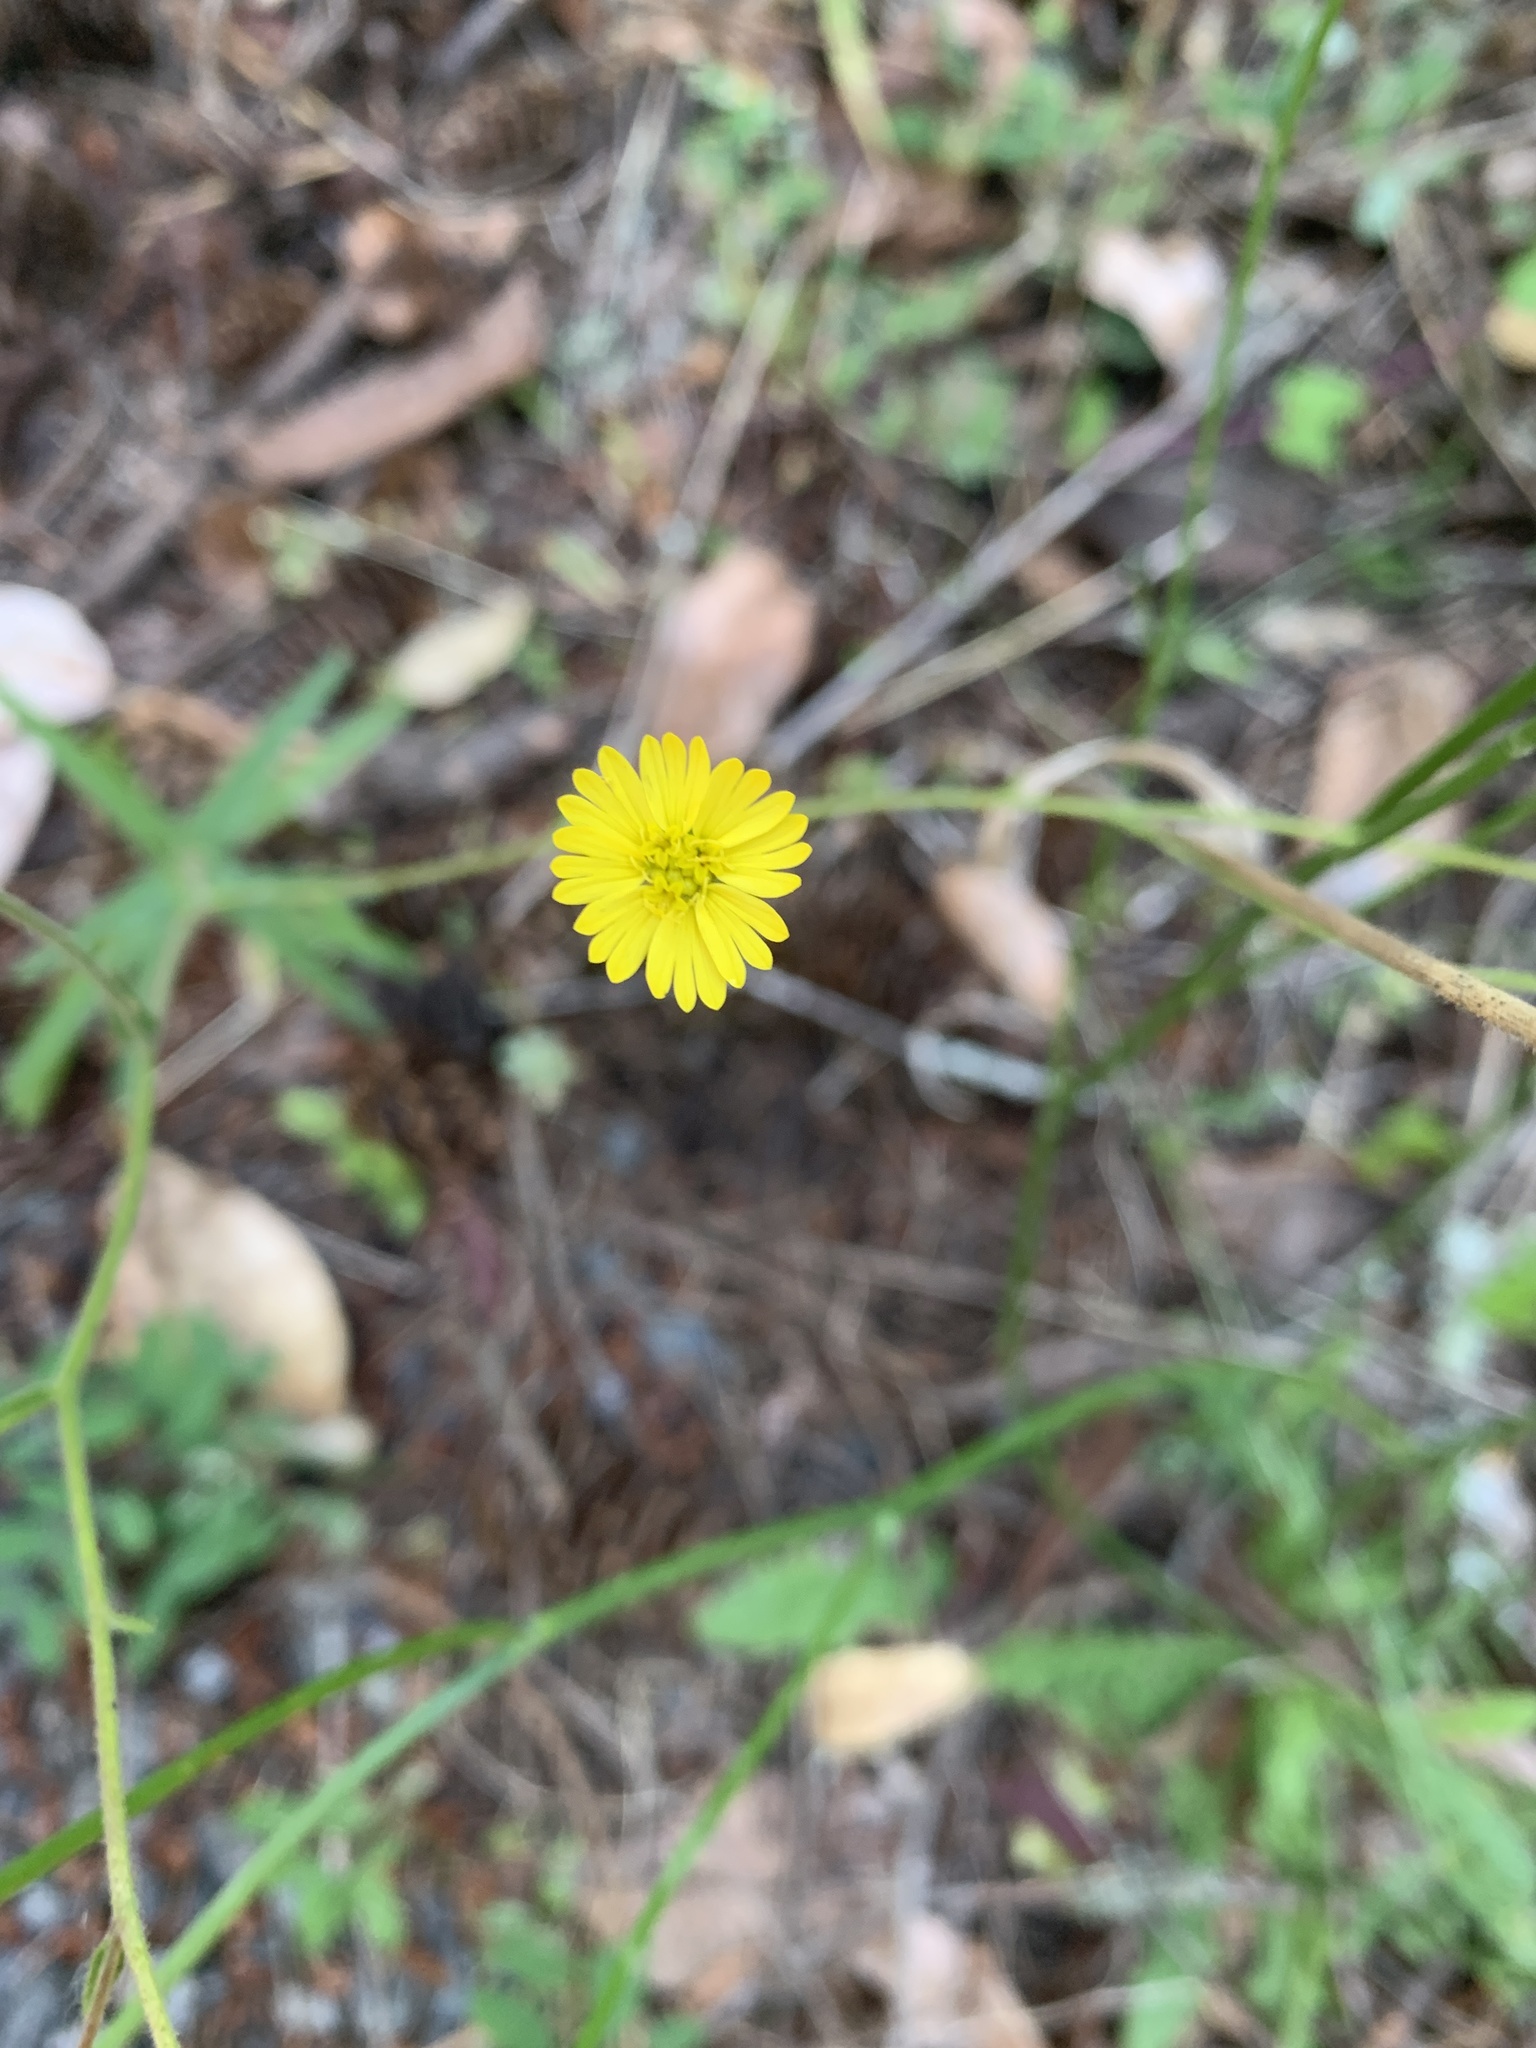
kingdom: Plantae
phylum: Tracheophyta
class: Magnoliopsida
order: Asterales
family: Asteraceae
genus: Anisocarpus
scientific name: Anisocarpus madioides
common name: Woodland madia
